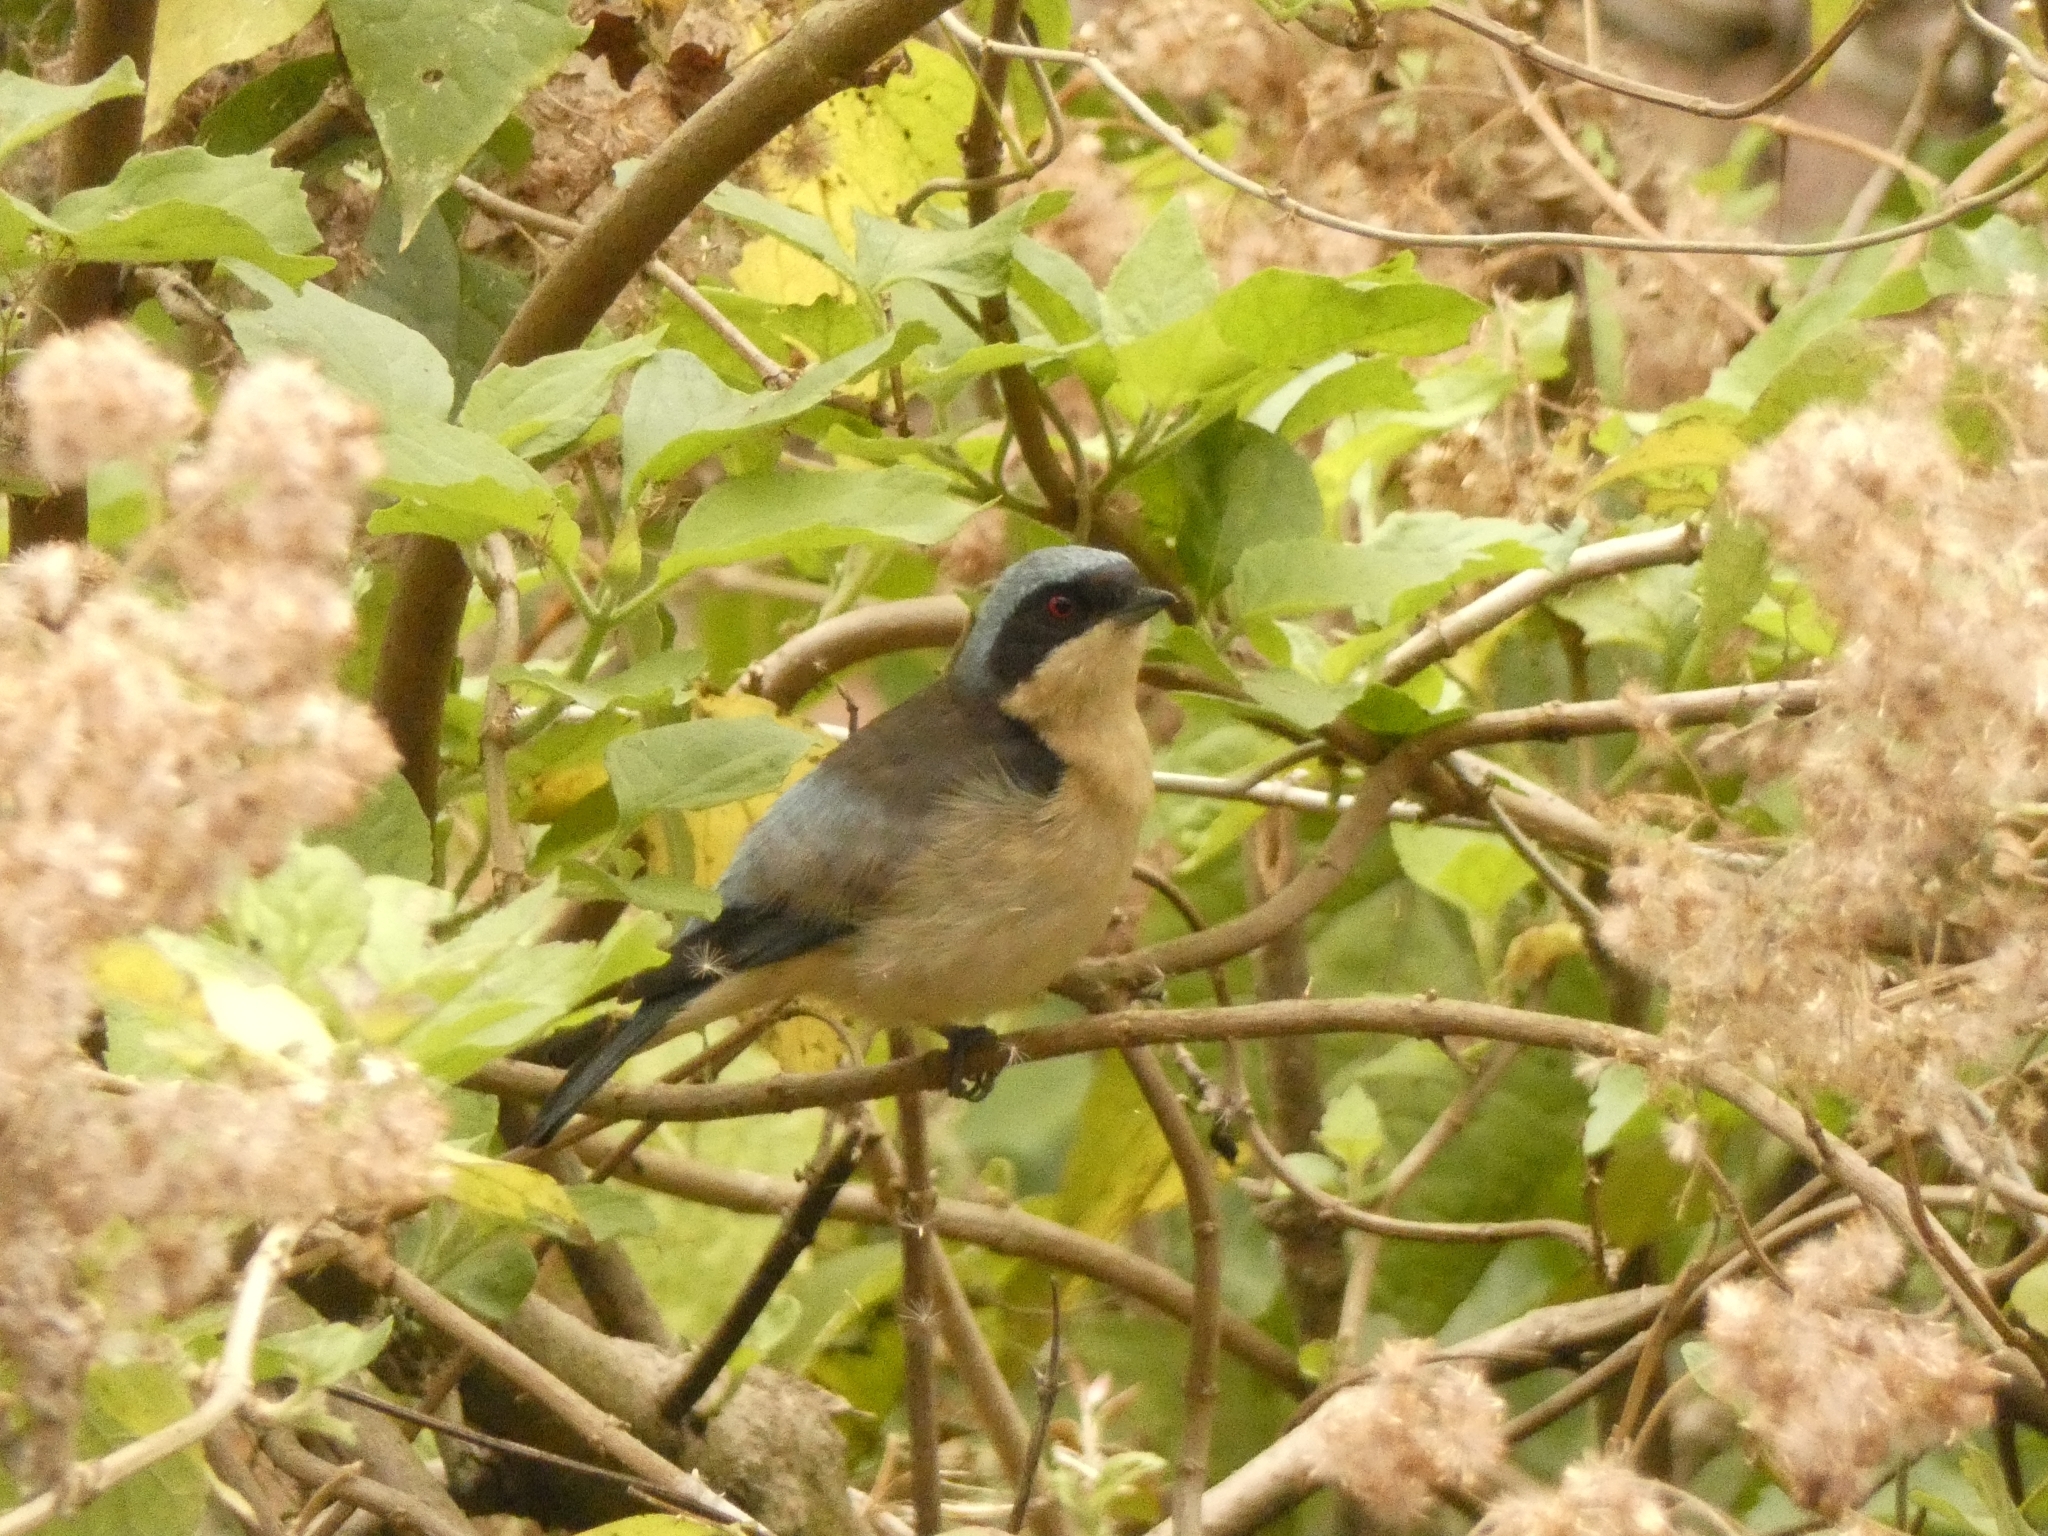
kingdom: Animalia
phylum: Chordata
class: Aves
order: Passeriformes
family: Thraupidae
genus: Pipraeidea
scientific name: Pipraeidea melanonota
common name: Fawn-breasted tanager
